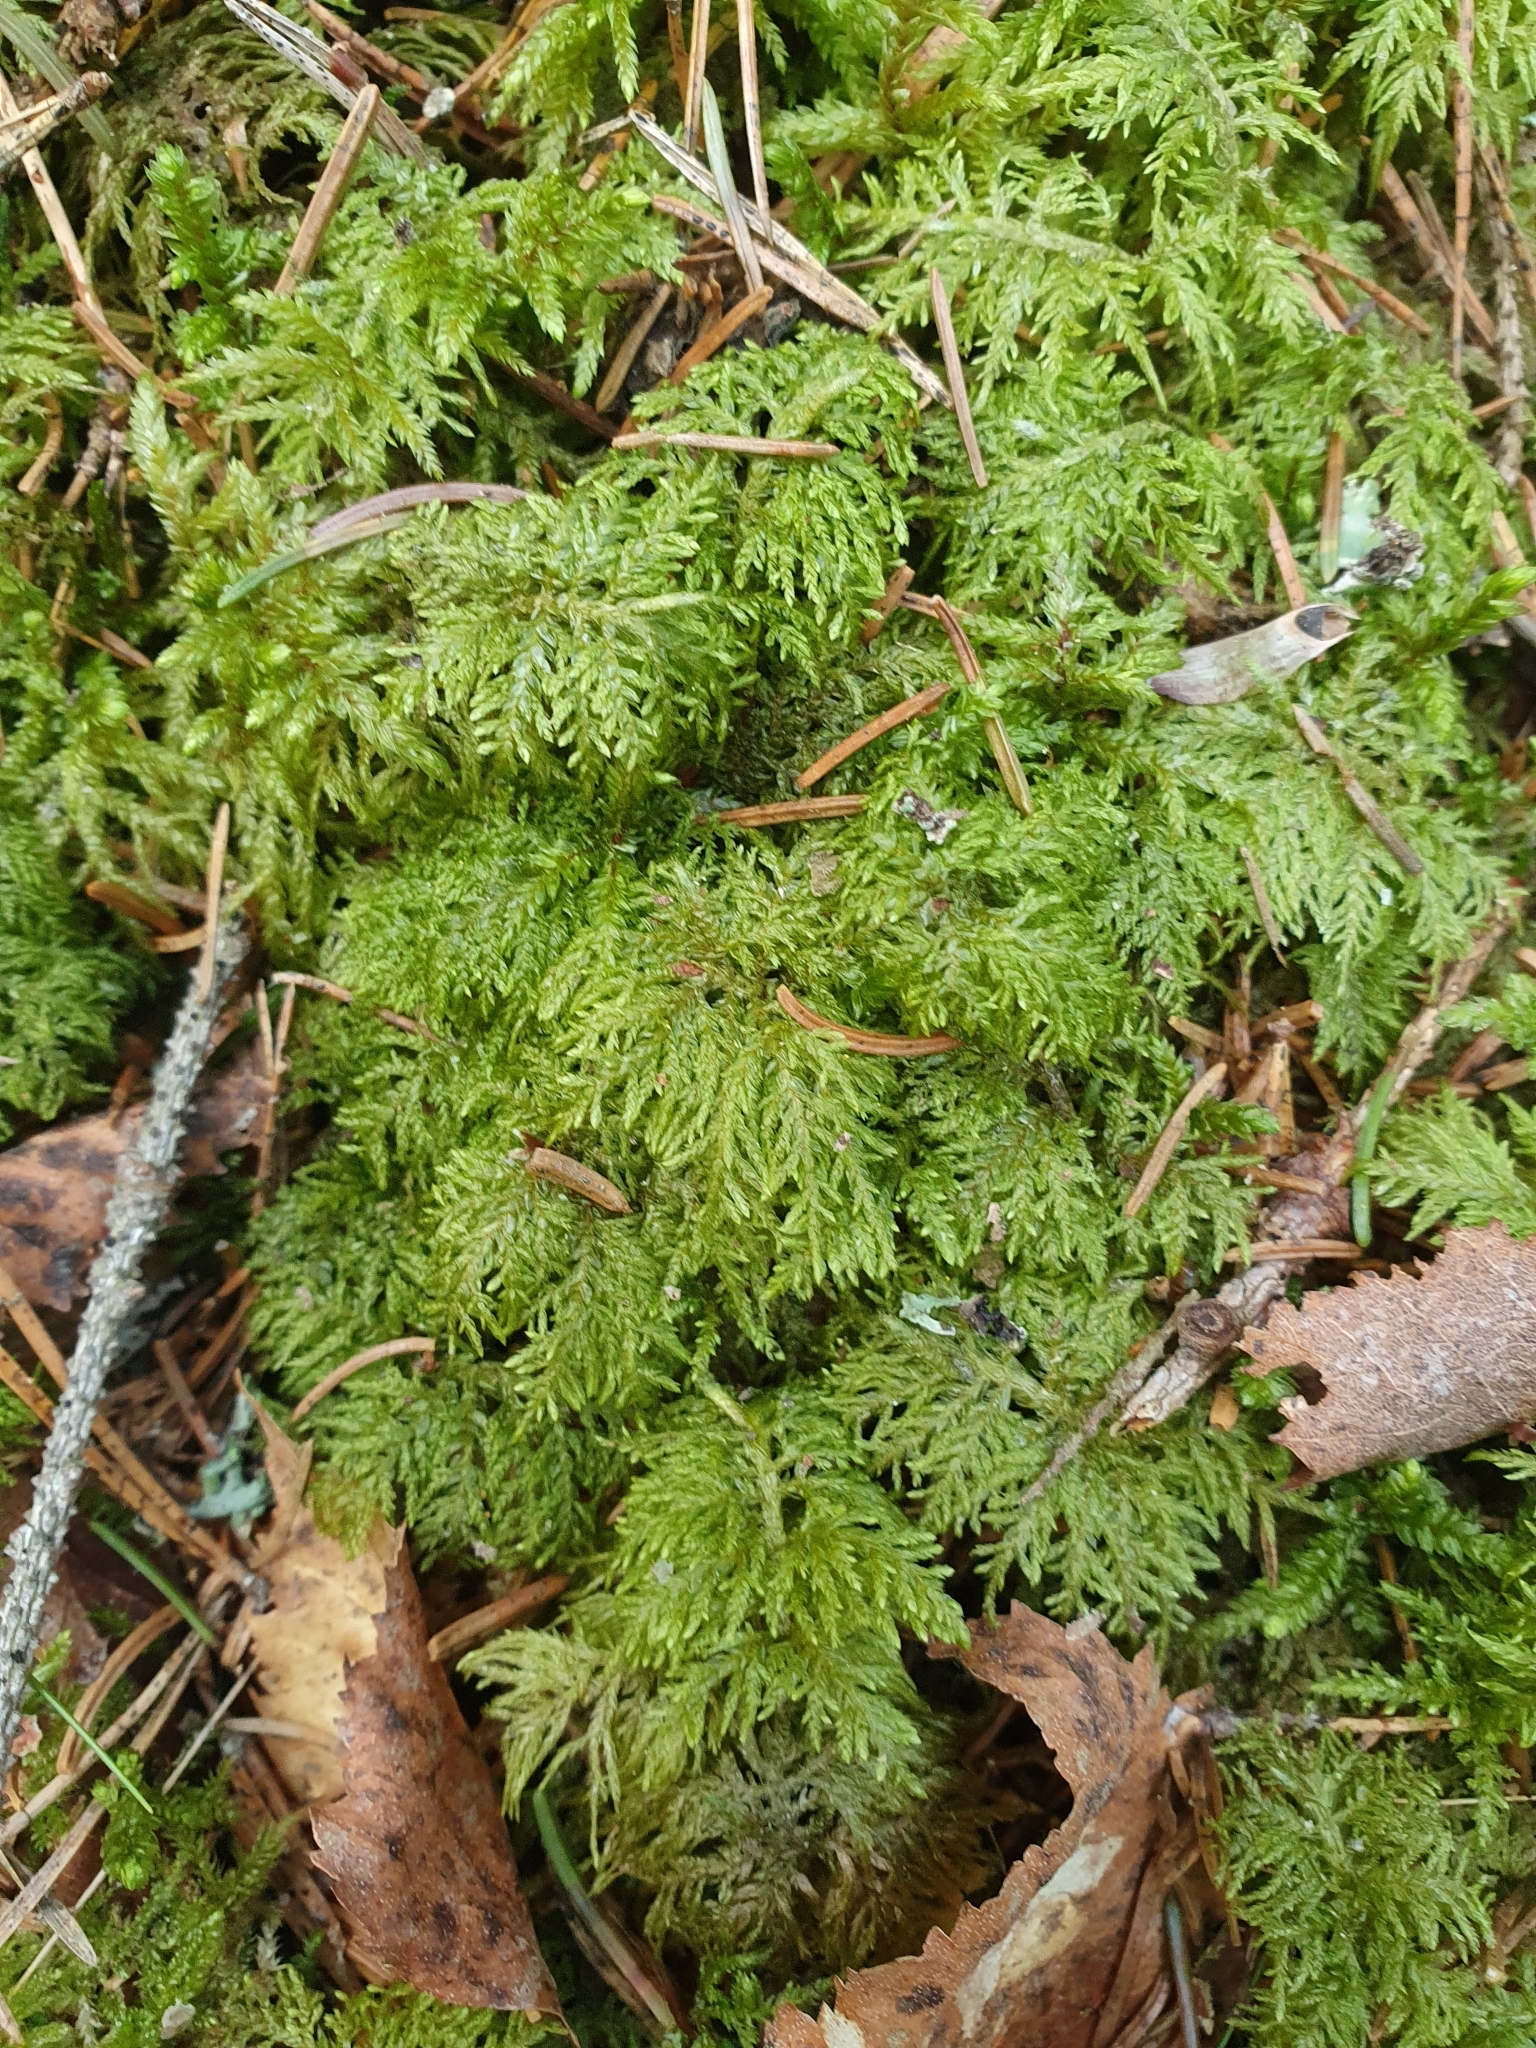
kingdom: Plantae
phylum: Bryophyta
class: Bryopsida
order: Hypnales
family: Hylocomiaceae
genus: Hylocomium
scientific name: Hylocomium splendens
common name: Stairstep moss
